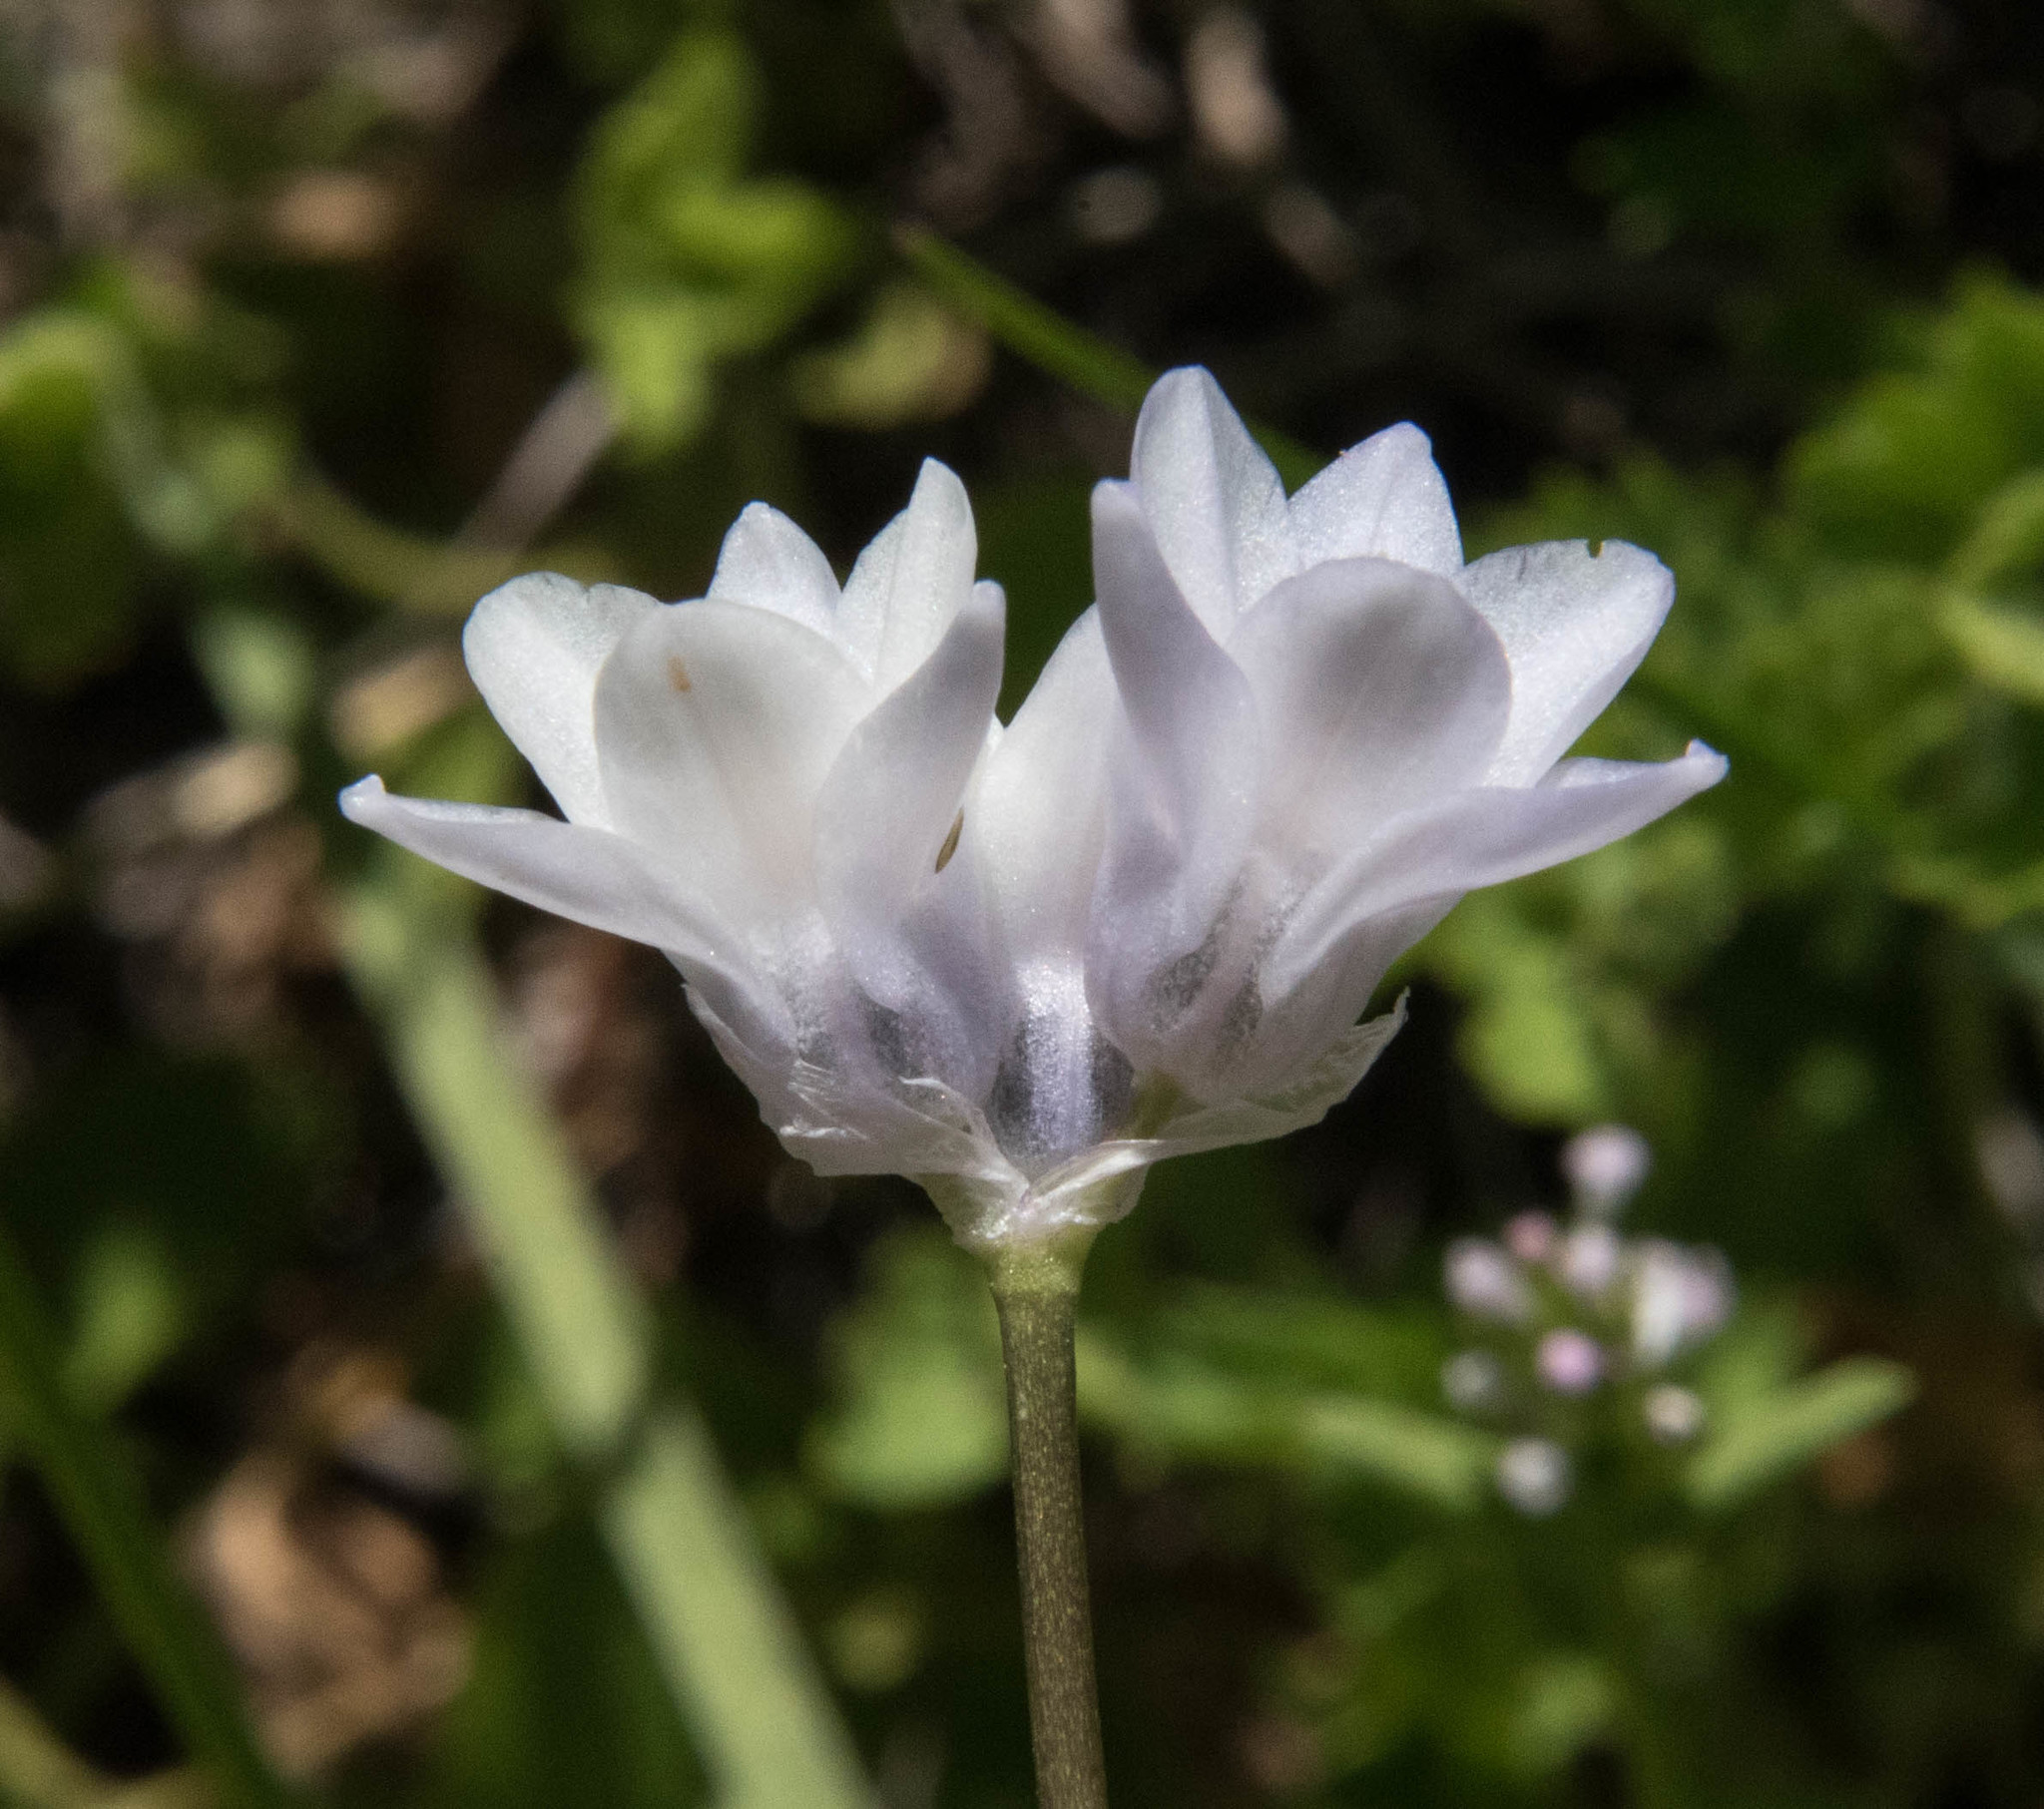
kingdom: Plantae
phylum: Tracheophyta
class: Liliopsida
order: Asparagales
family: Asparagaceae
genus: Dipterostemon
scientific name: Dipterostemon capitatus
